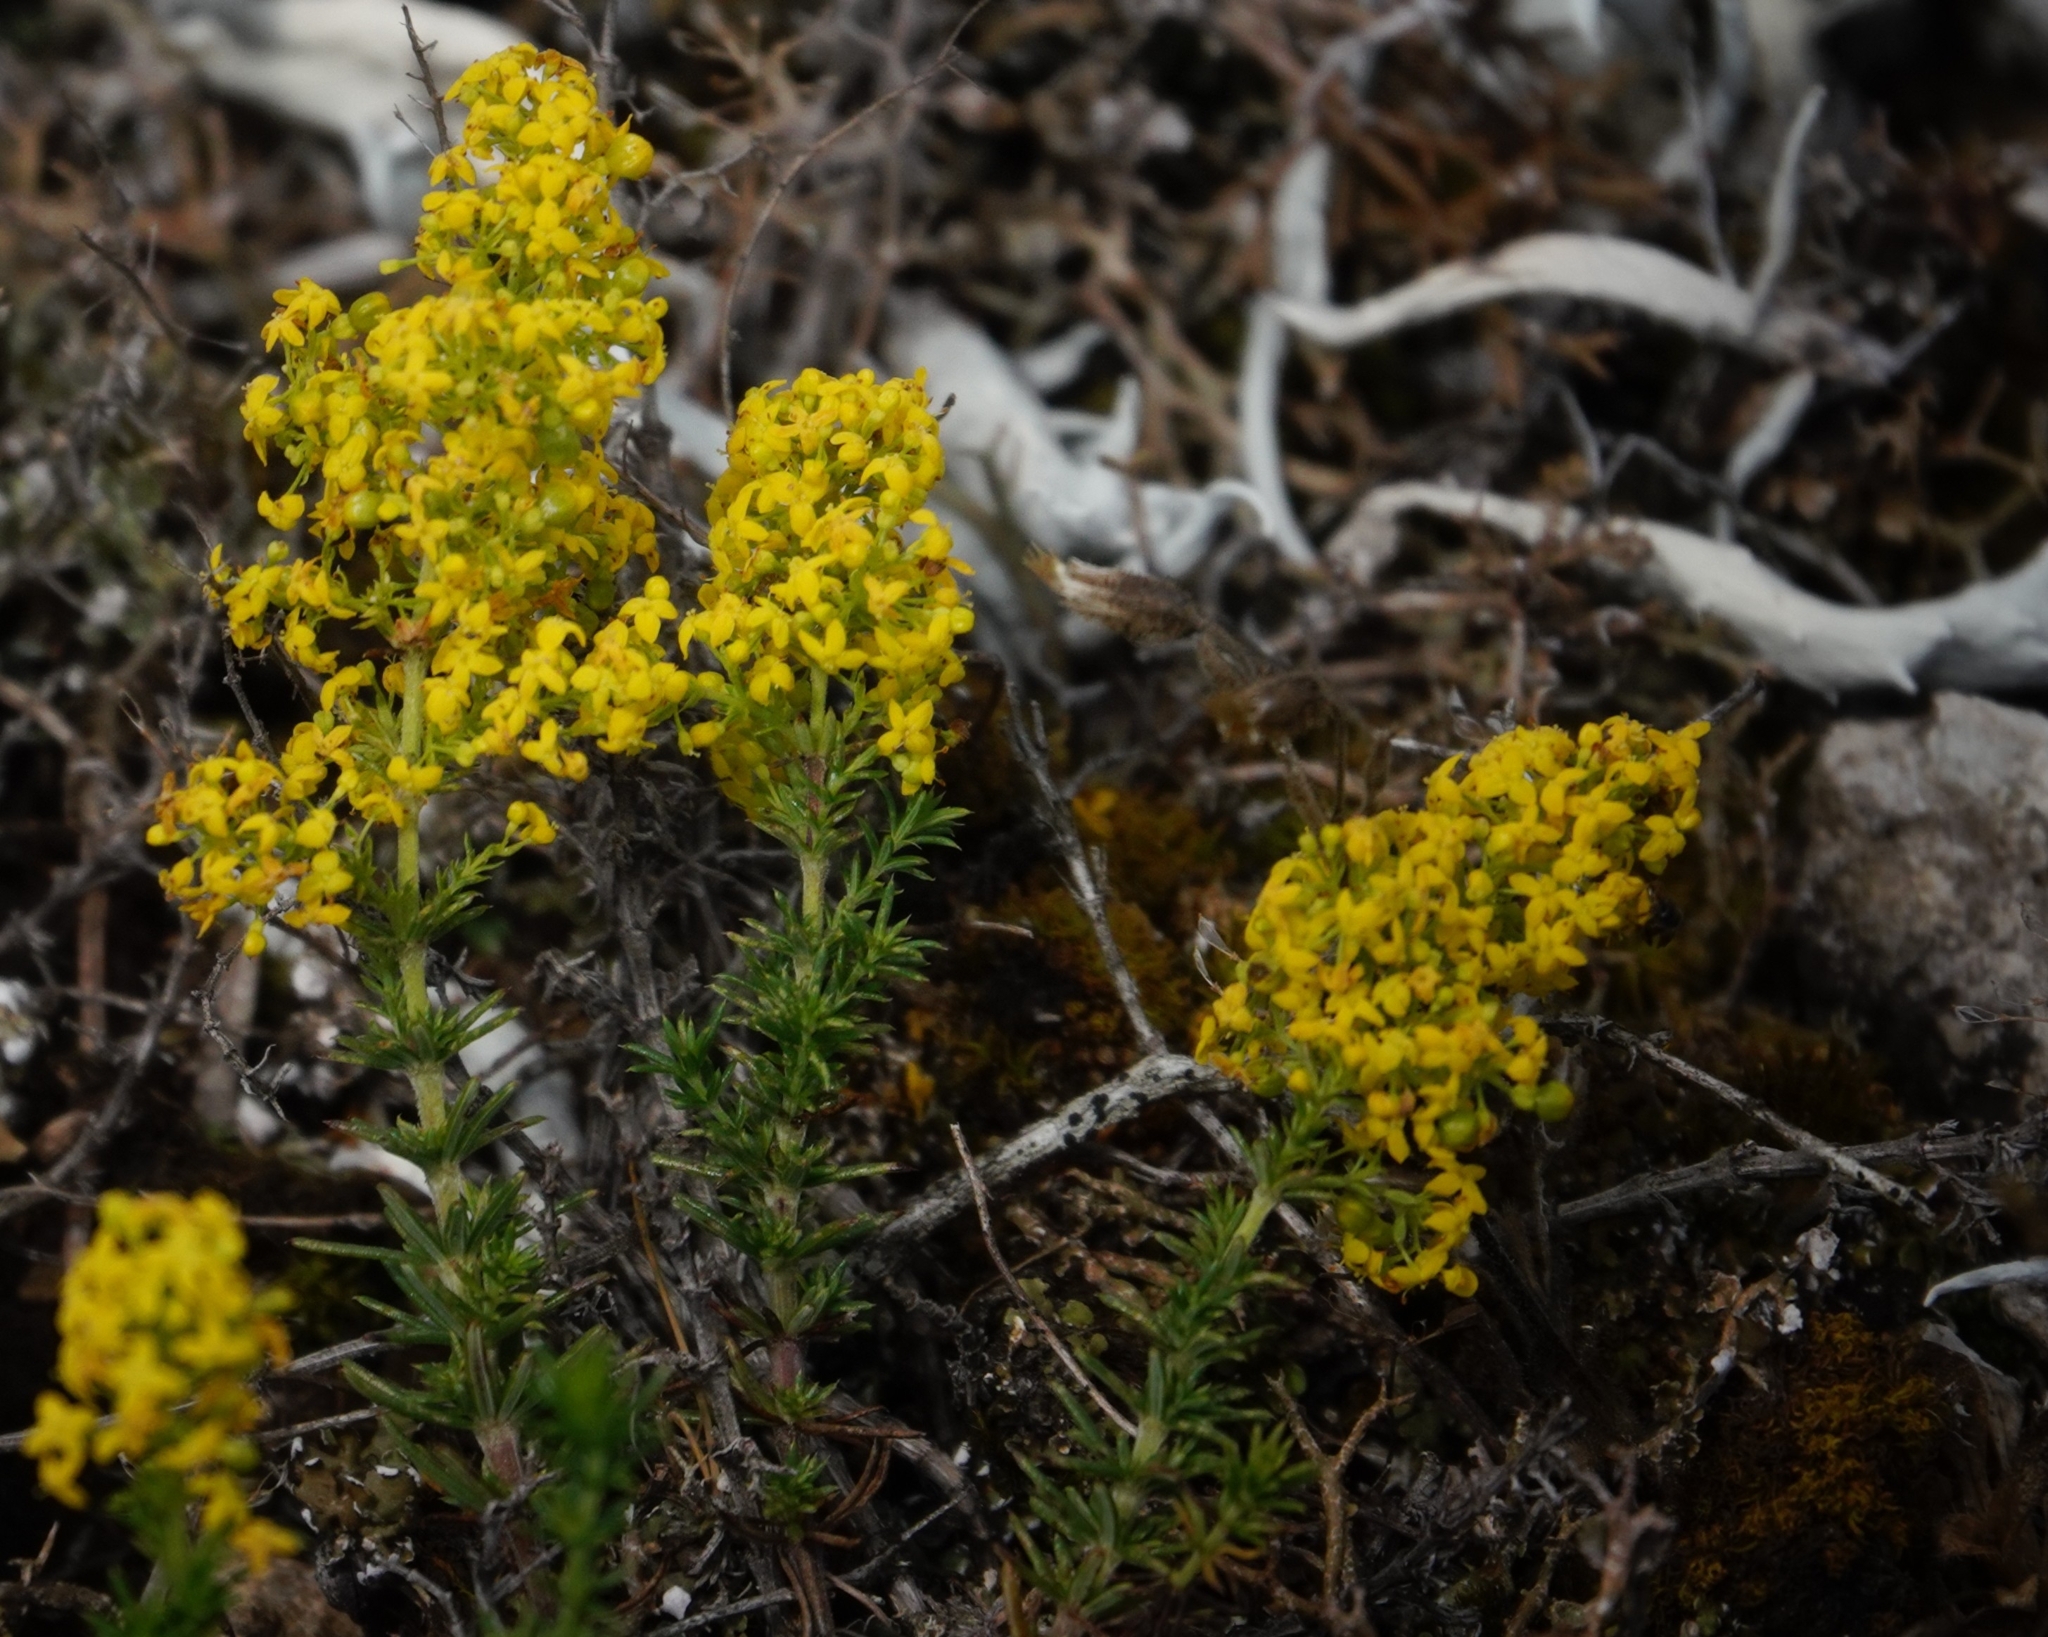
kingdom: Plantae
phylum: Tracheophyta
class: Magnoliopsida
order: Gentianales
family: Rubiaceae
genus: Galium
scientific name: Galium verum
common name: Lady's bedstraw
